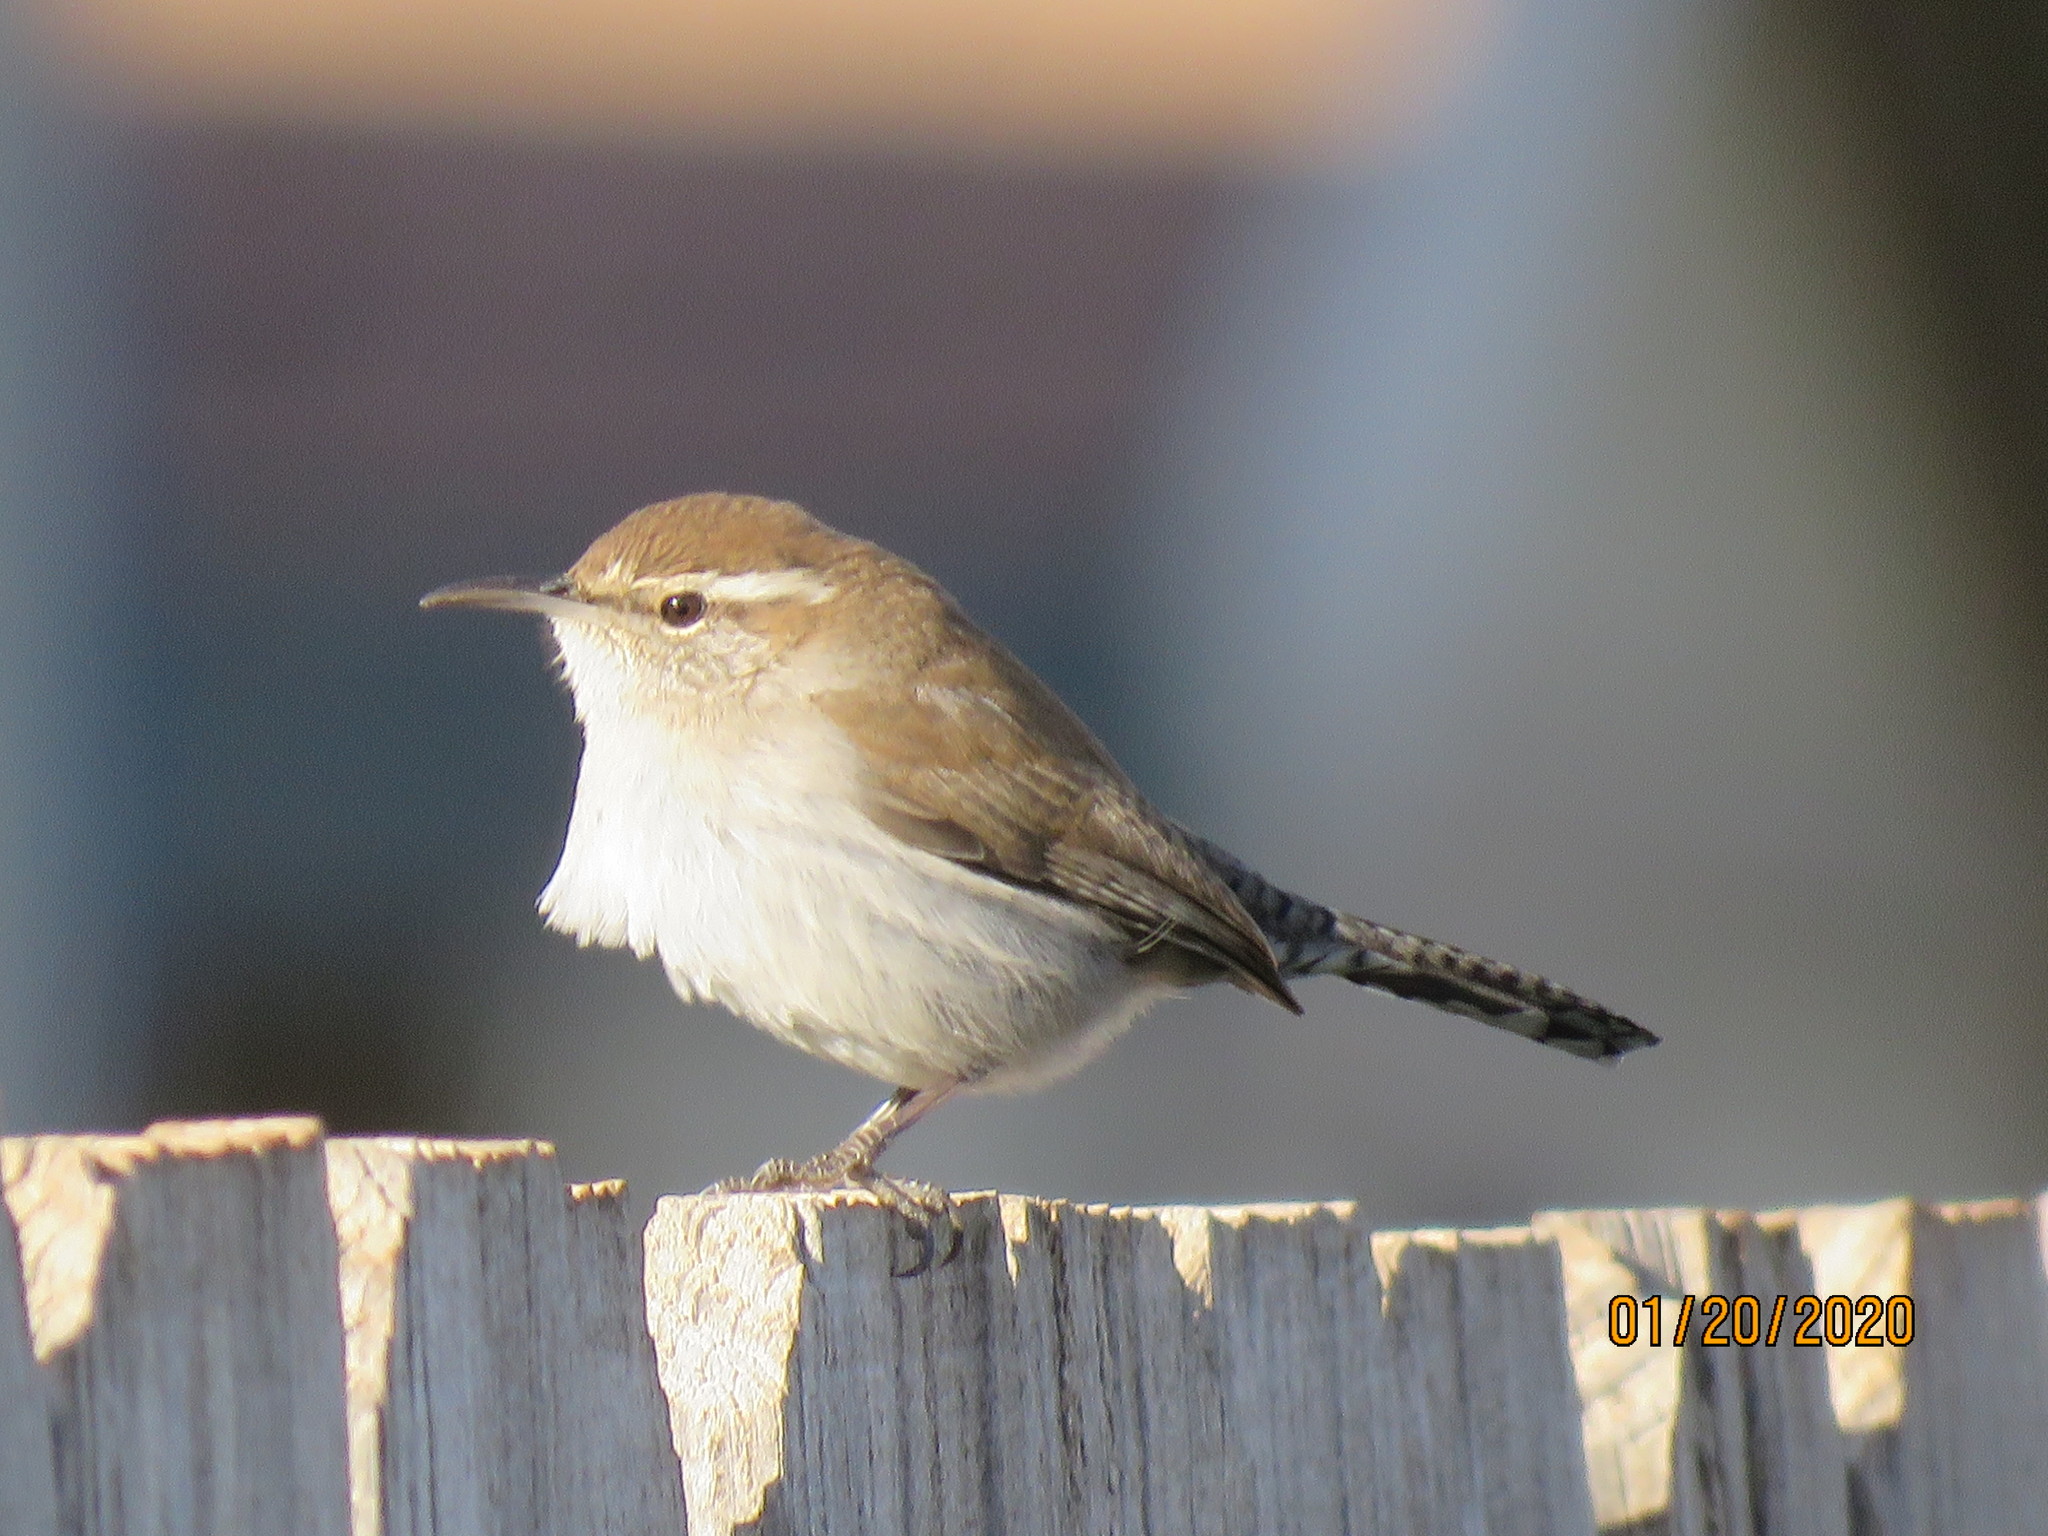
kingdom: Animalia
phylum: Chordata
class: Aves
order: Passeriformes
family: Troglodytidae
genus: Thryomanes
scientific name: Thryomanes bewickii
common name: Bewick's wren
